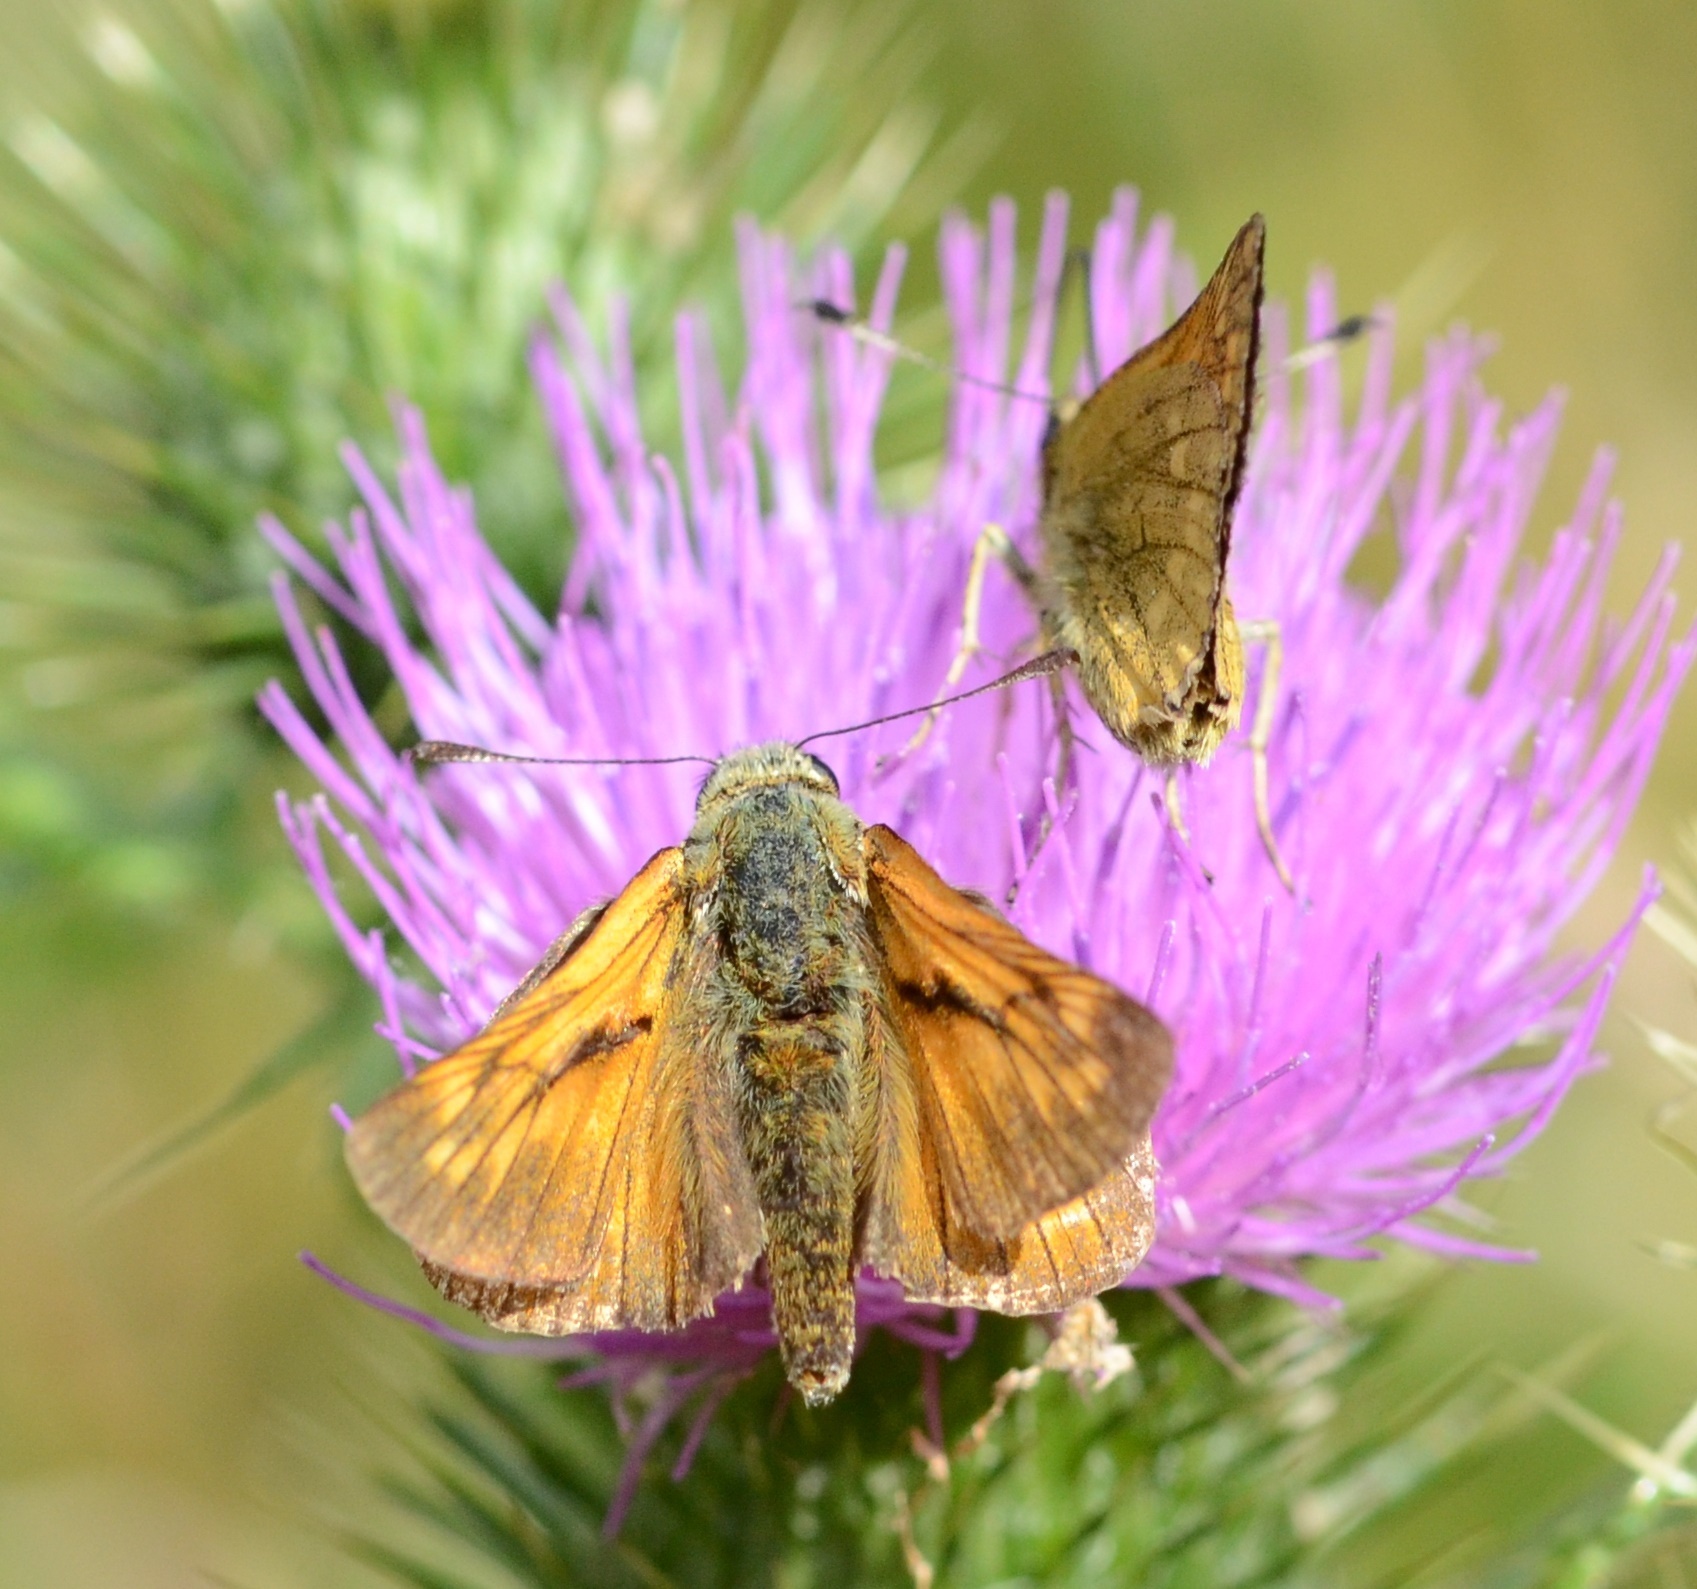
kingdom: Animalia
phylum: Arthropoda
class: Insecta
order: Lepidoptera
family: Hesperiidae
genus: Ochlodes
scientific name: Ochlodes venata
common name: Large skipper
